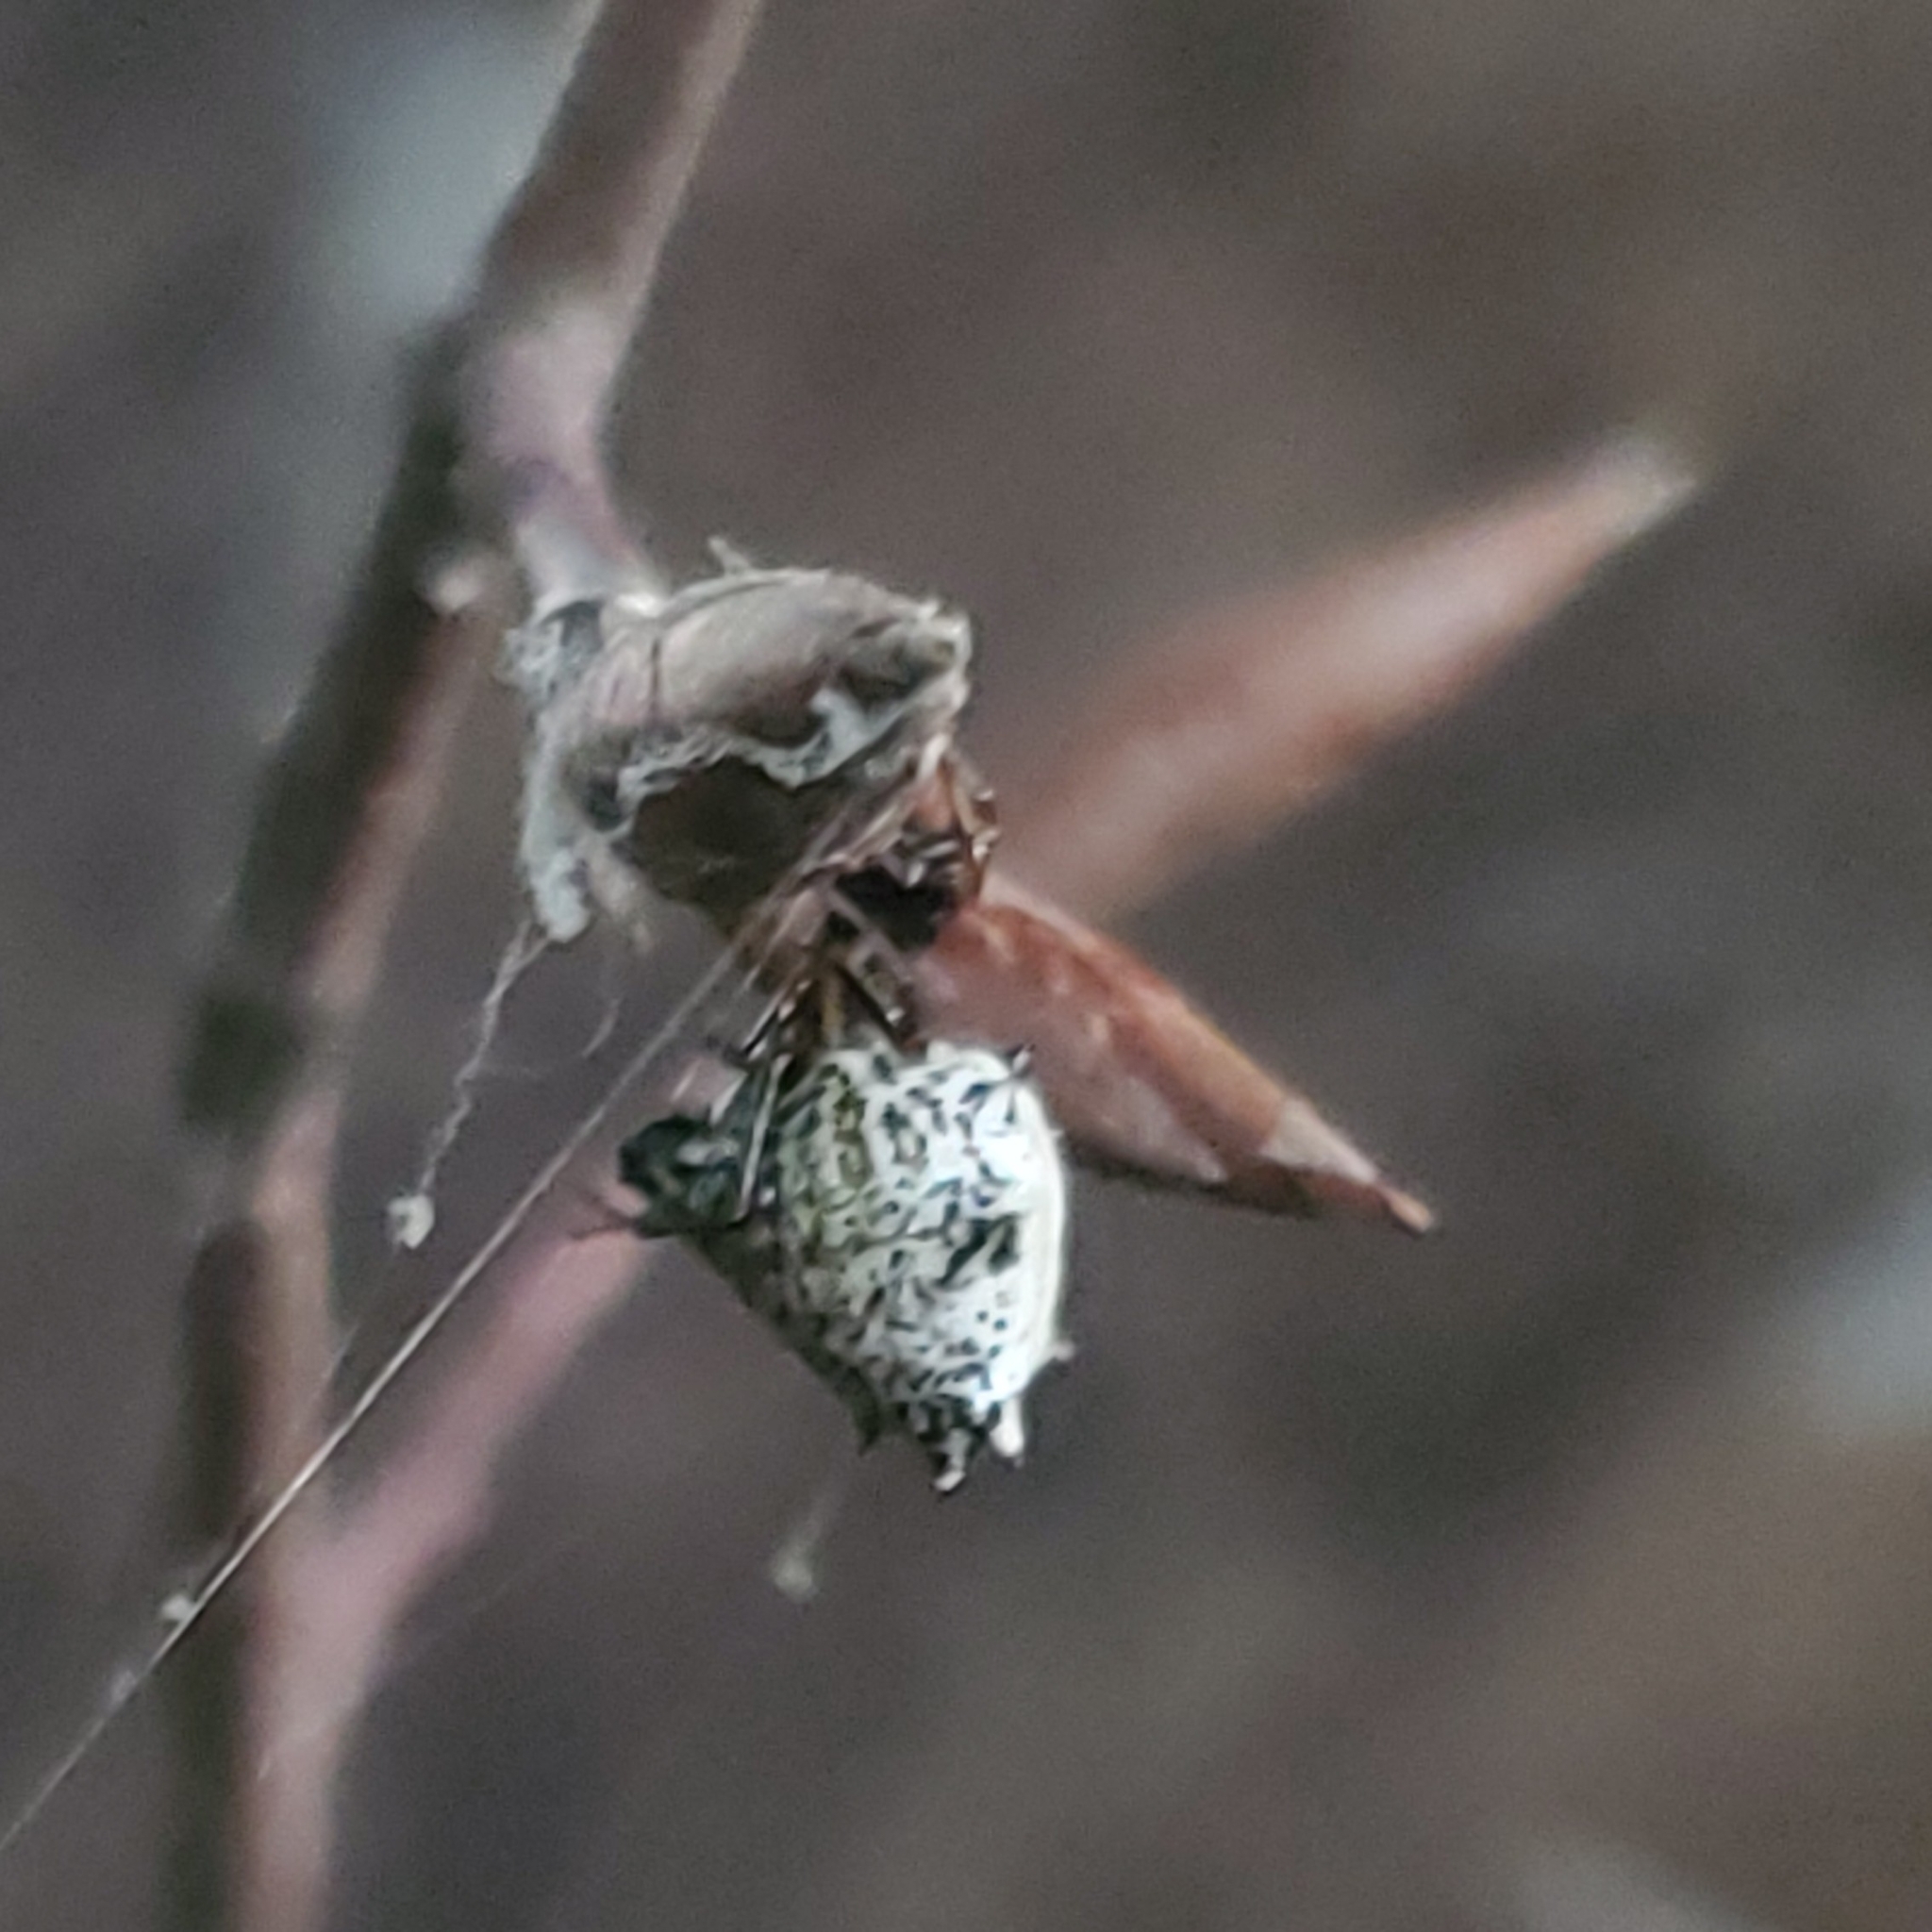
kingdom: Animalia
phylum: Arthropoda
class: Arachnida
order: Araneae
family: Araneidae
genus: Micrathena
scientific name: Micrathena gracilis
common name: Orb weavers
